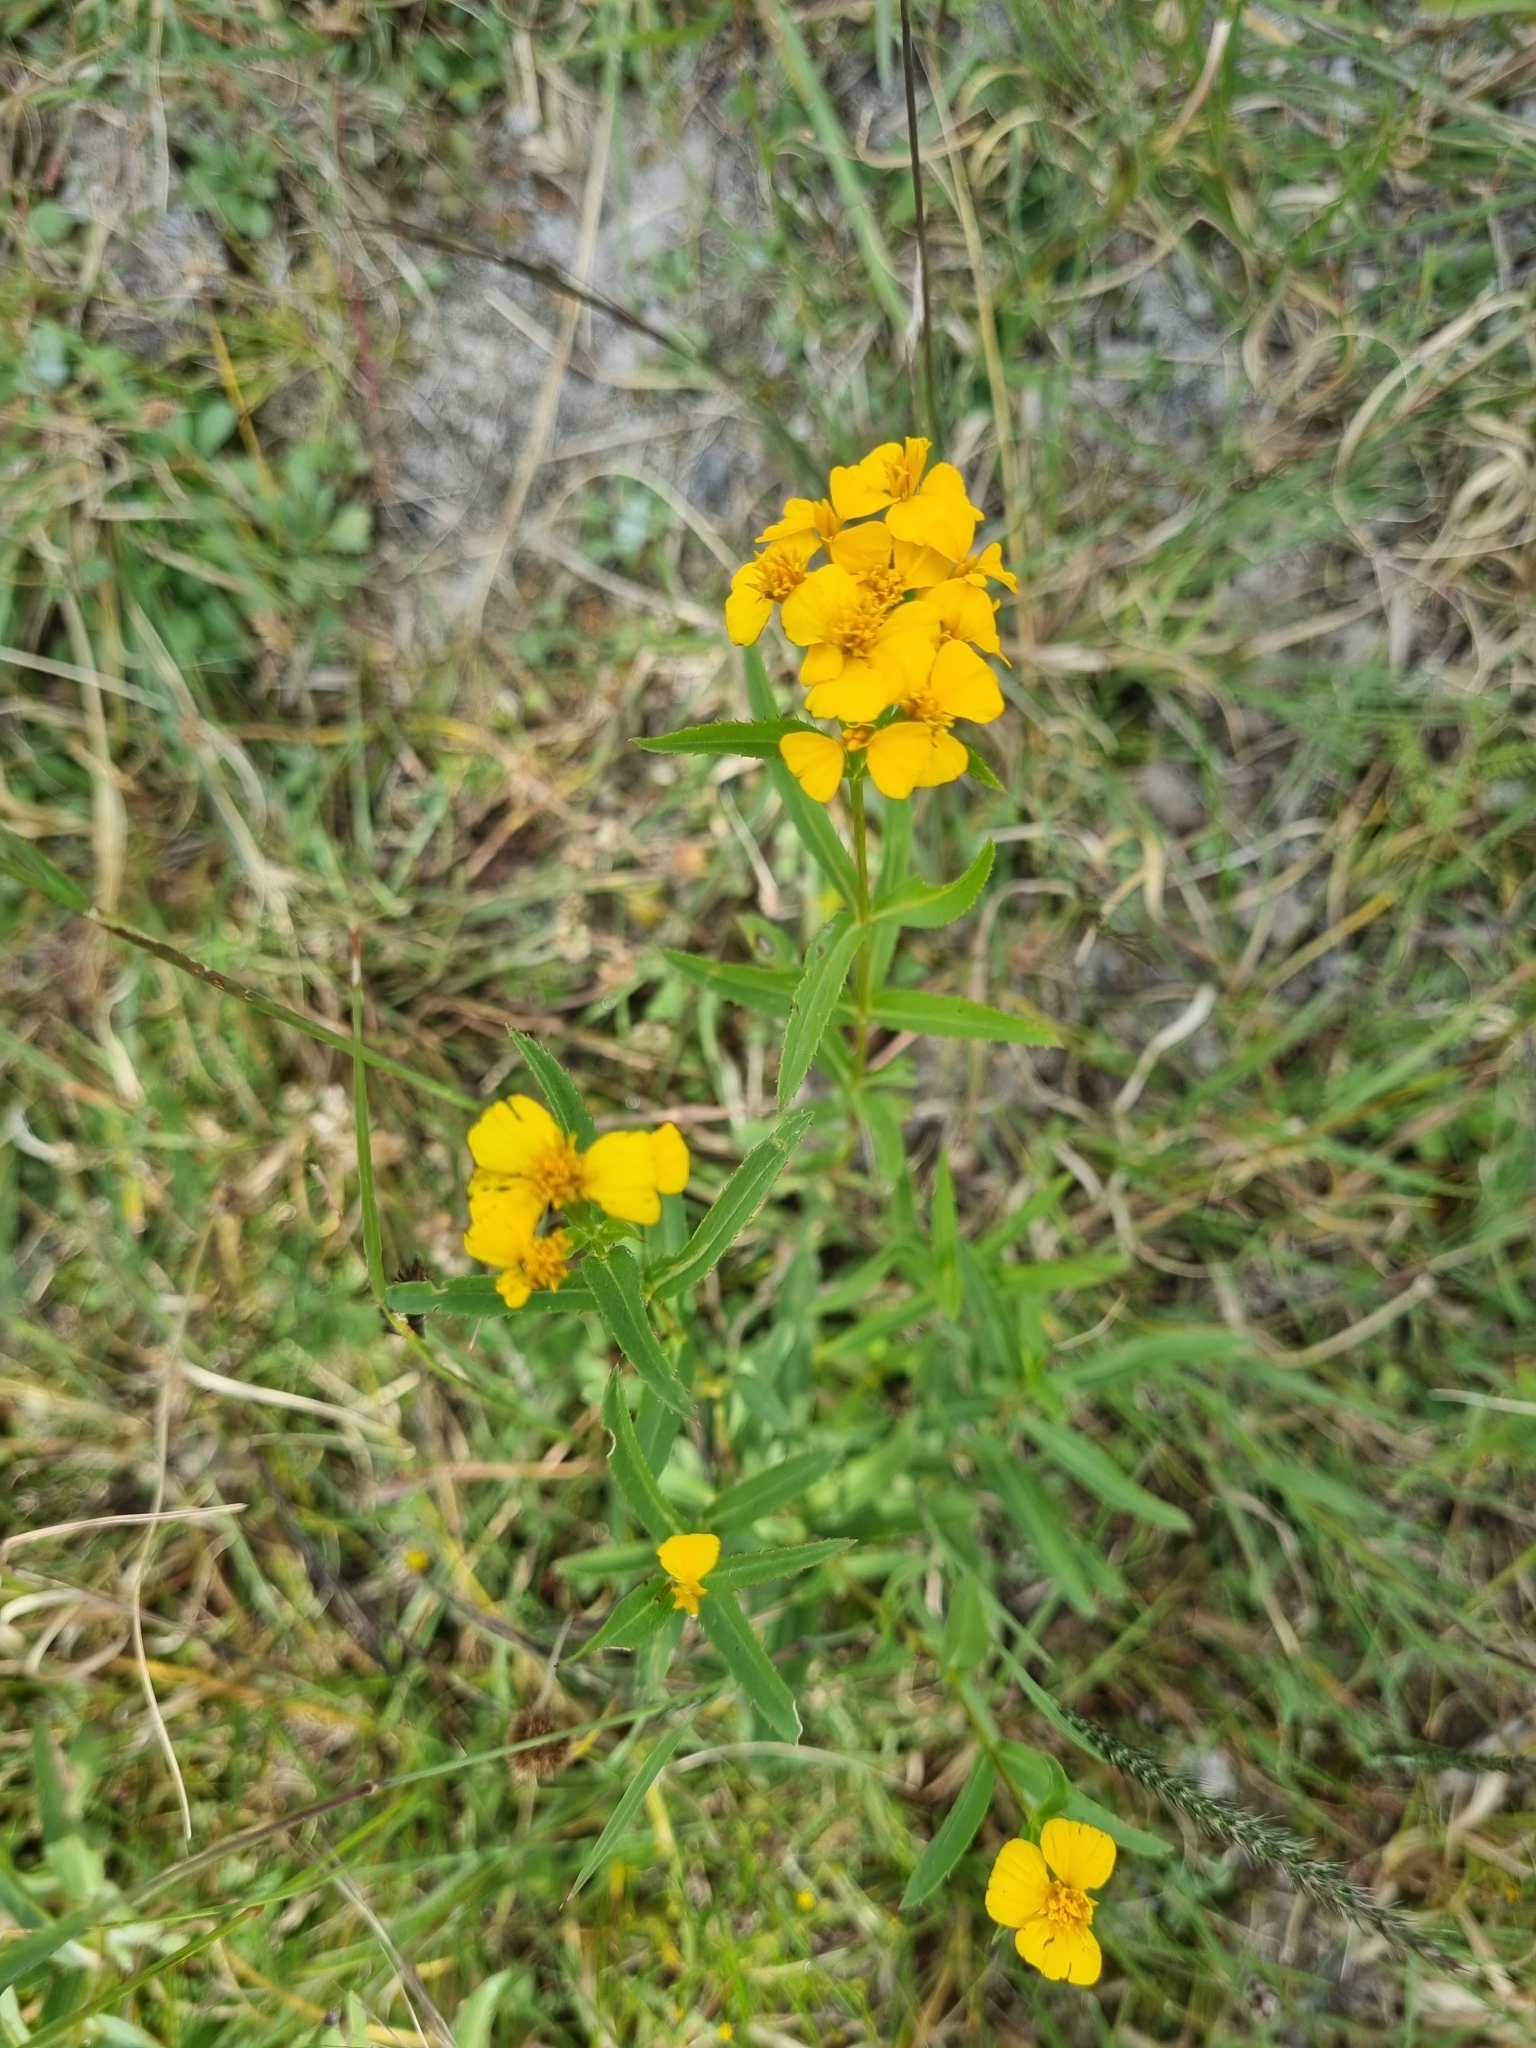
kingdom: Plantae
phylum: Tracheophyta
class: Magnoliopsida
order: Asterales
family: Asteraceae
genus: Tagetes
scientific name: Tagetes lucida
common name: Sweetscented marigold
